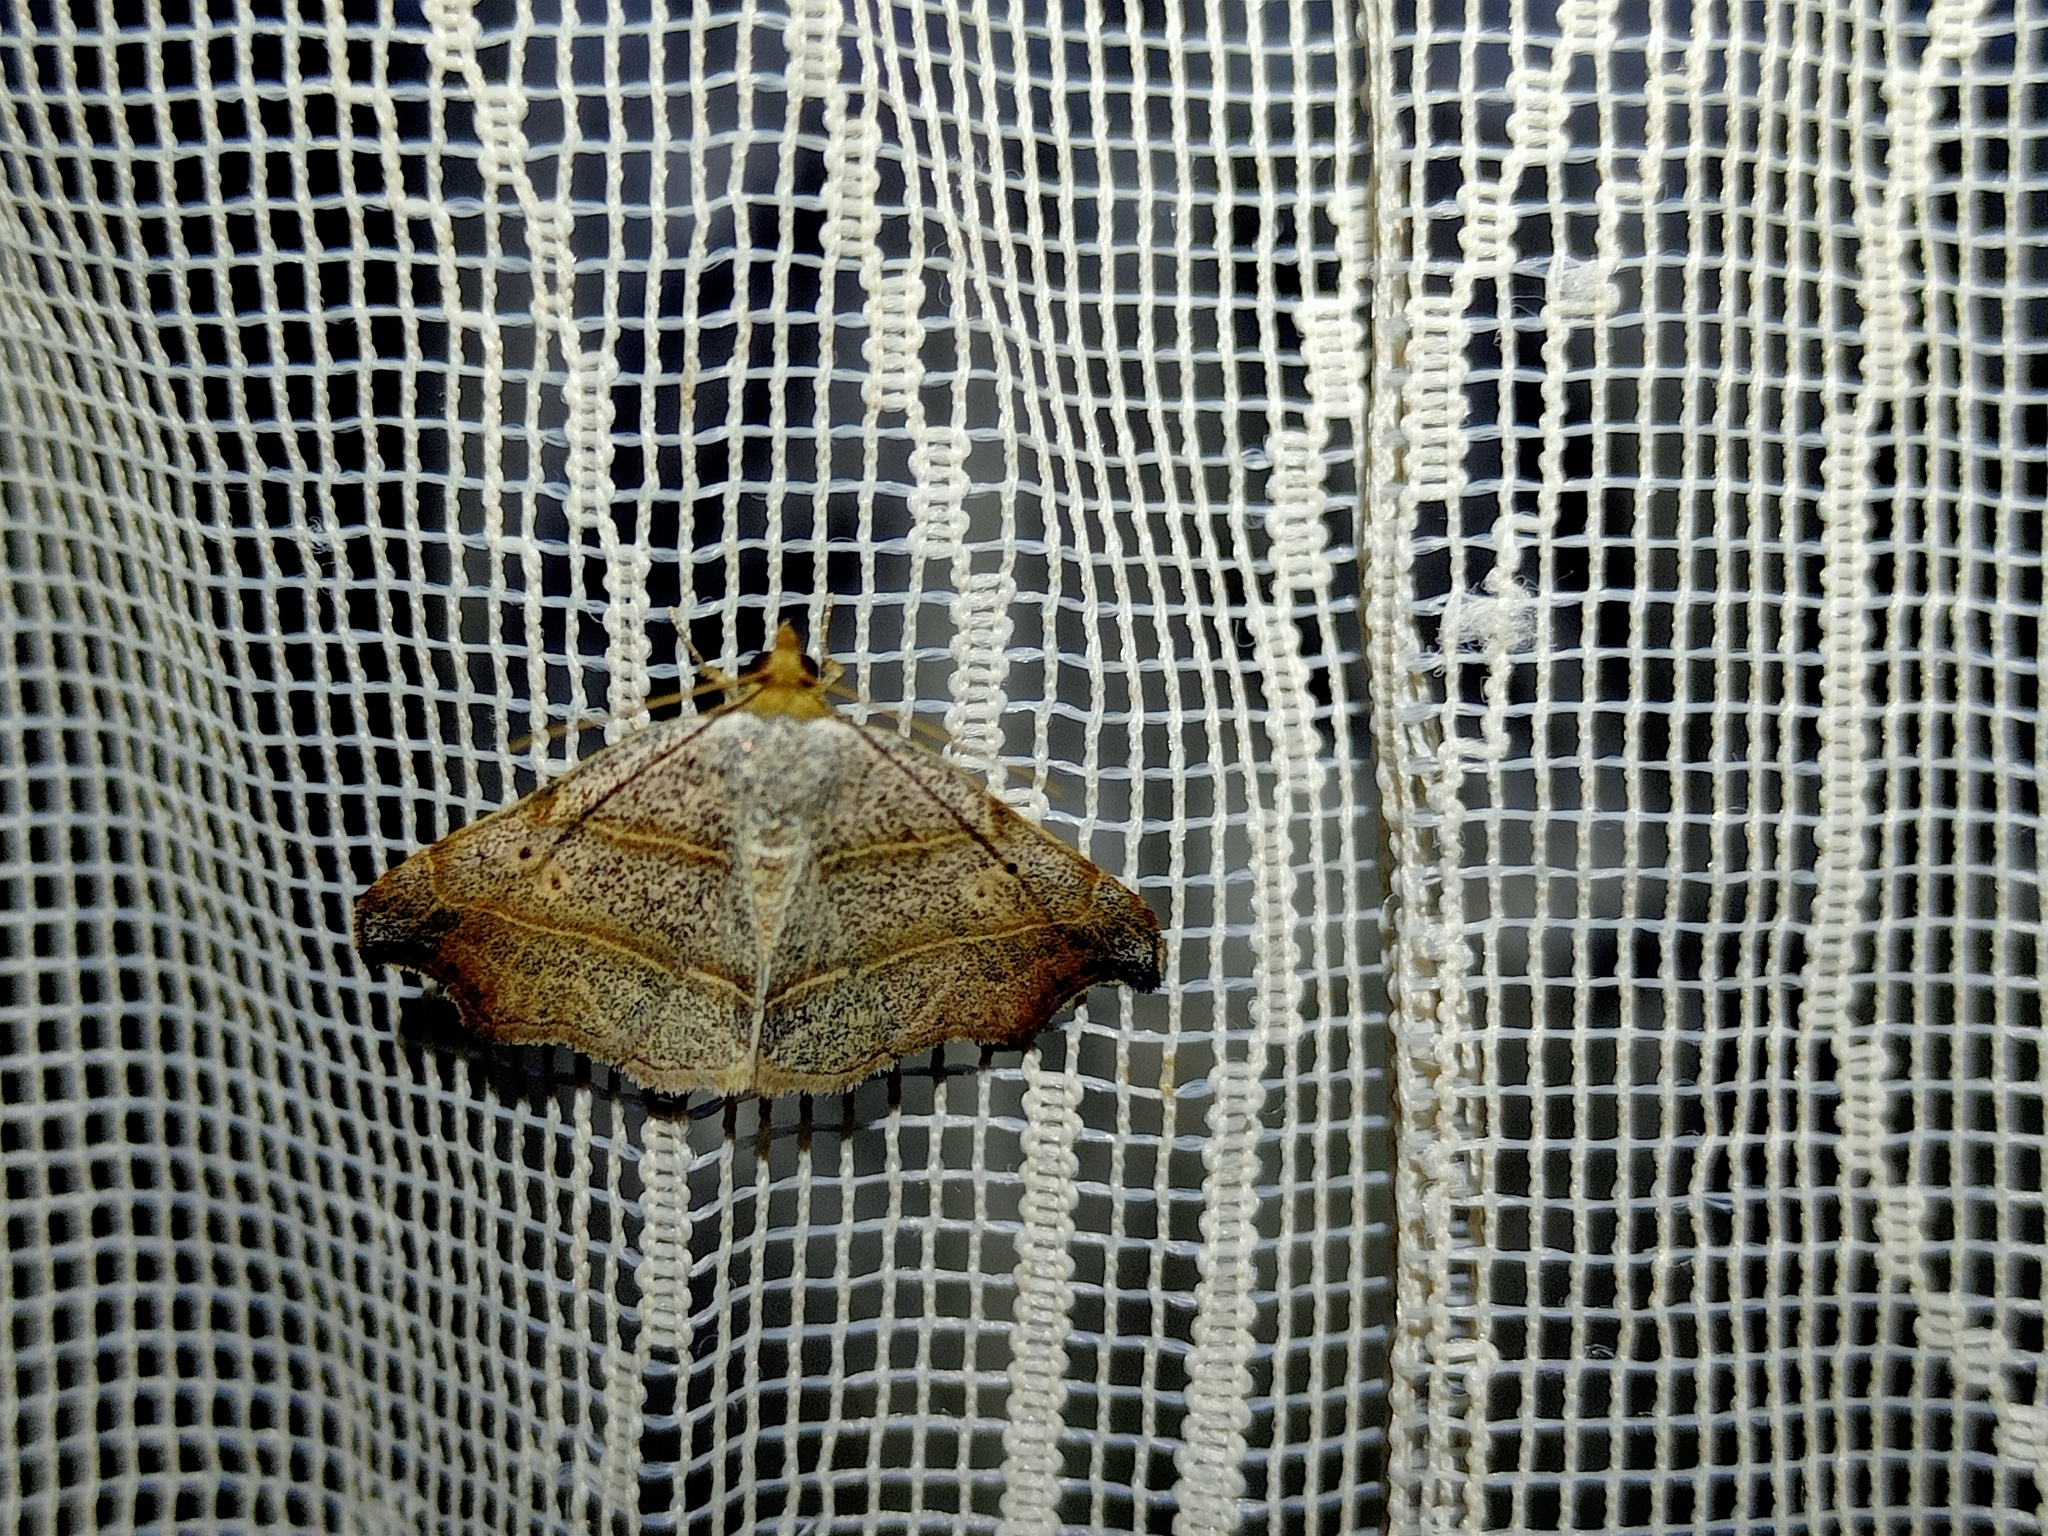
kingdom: Animalia
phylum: Arthropoda
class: Insecta
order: Lepidoptera
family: Erebidae
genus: Laspeyria
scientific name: Laspeyria flexula
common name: Beautiful hook-tip
